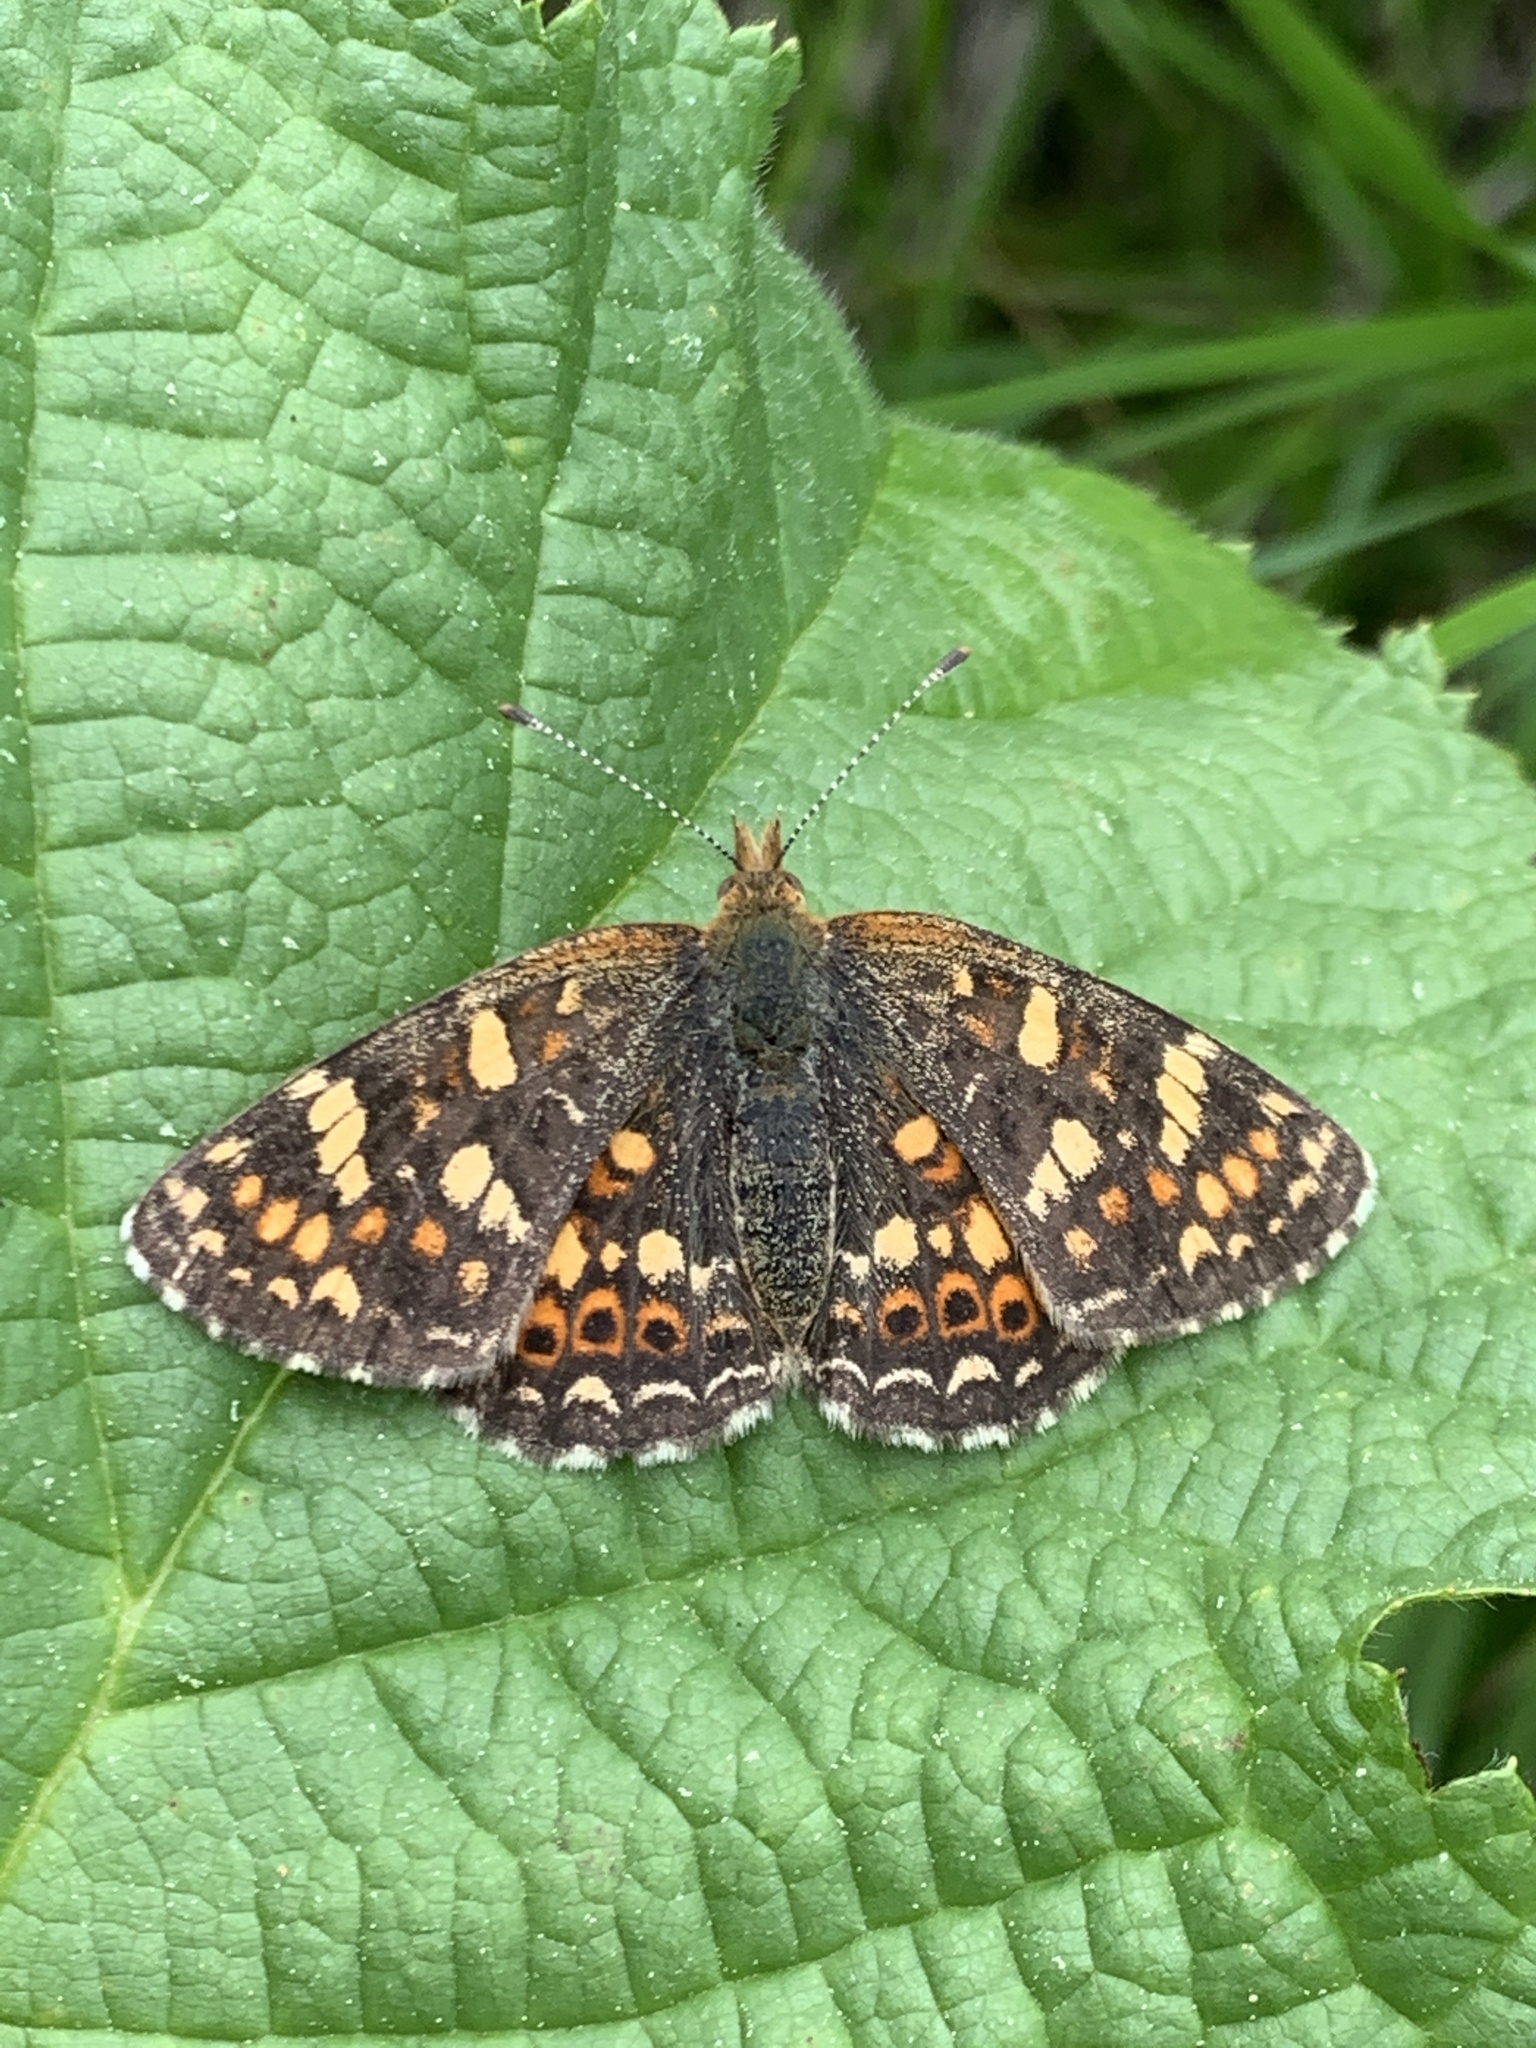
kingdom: Animalia
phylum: Arthropoda
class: Insecta
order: Lepidoptera
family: Nymphalidae
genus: Phyciodes
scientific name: Phyciodes tharos
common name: Pearl crescent
